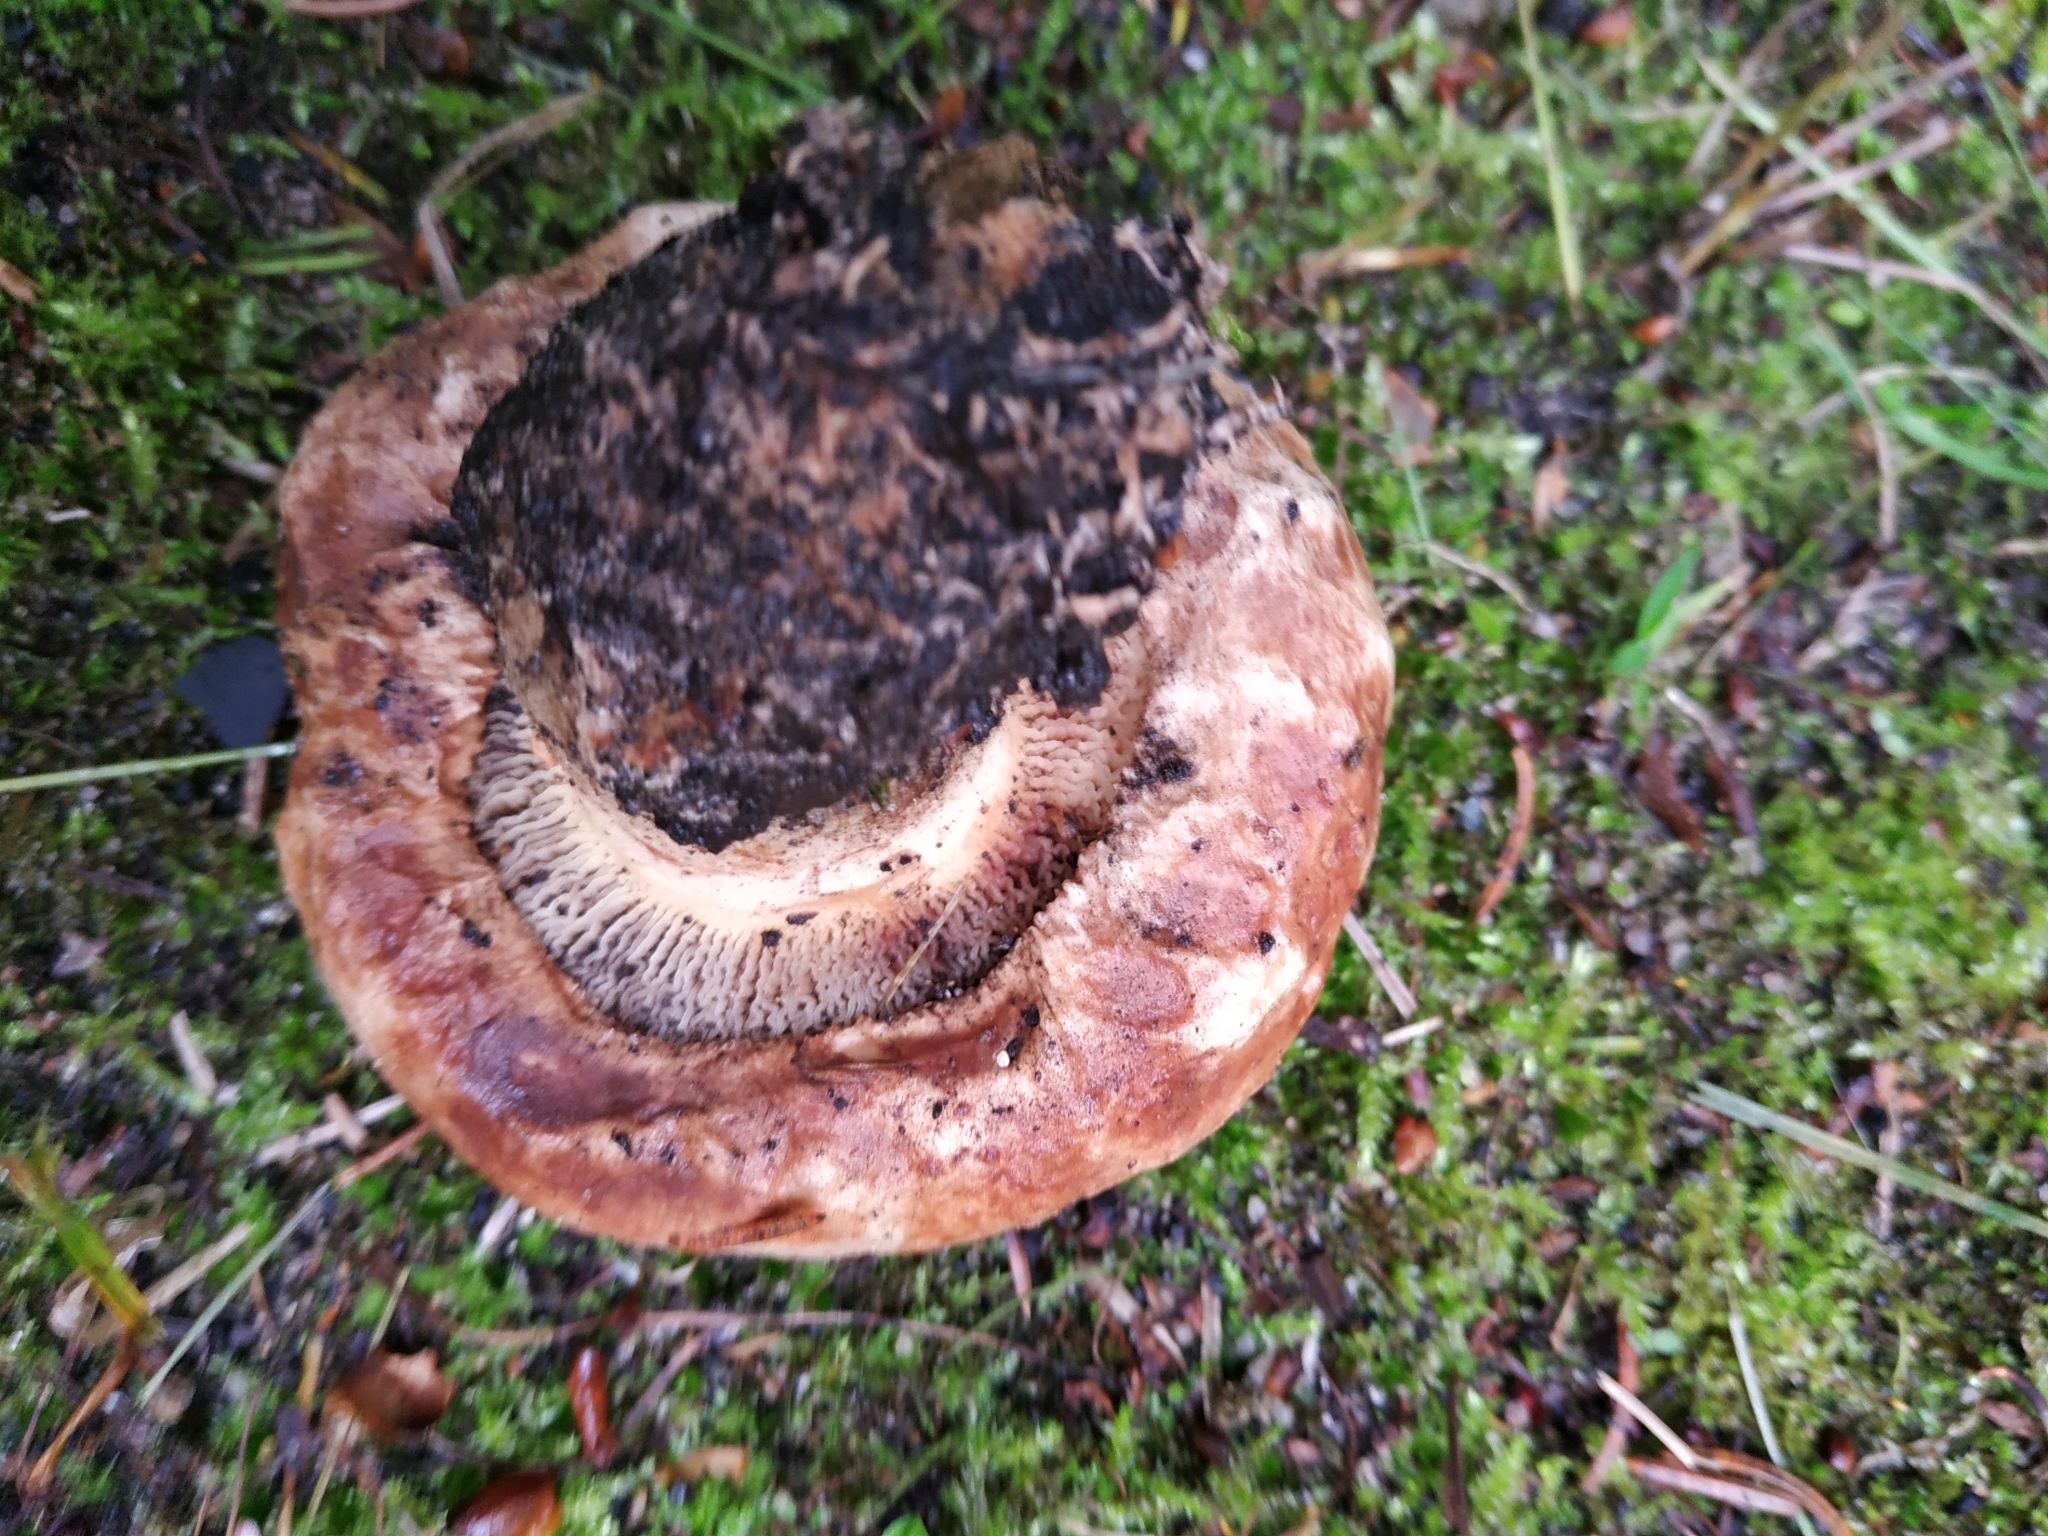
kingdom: Fungi
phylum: Basidiomycota
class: Agaricomycetes
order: Boletales
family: Paxillaceae
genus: Paxillus
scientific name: Paxillus involutus
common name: Brown roll rim
